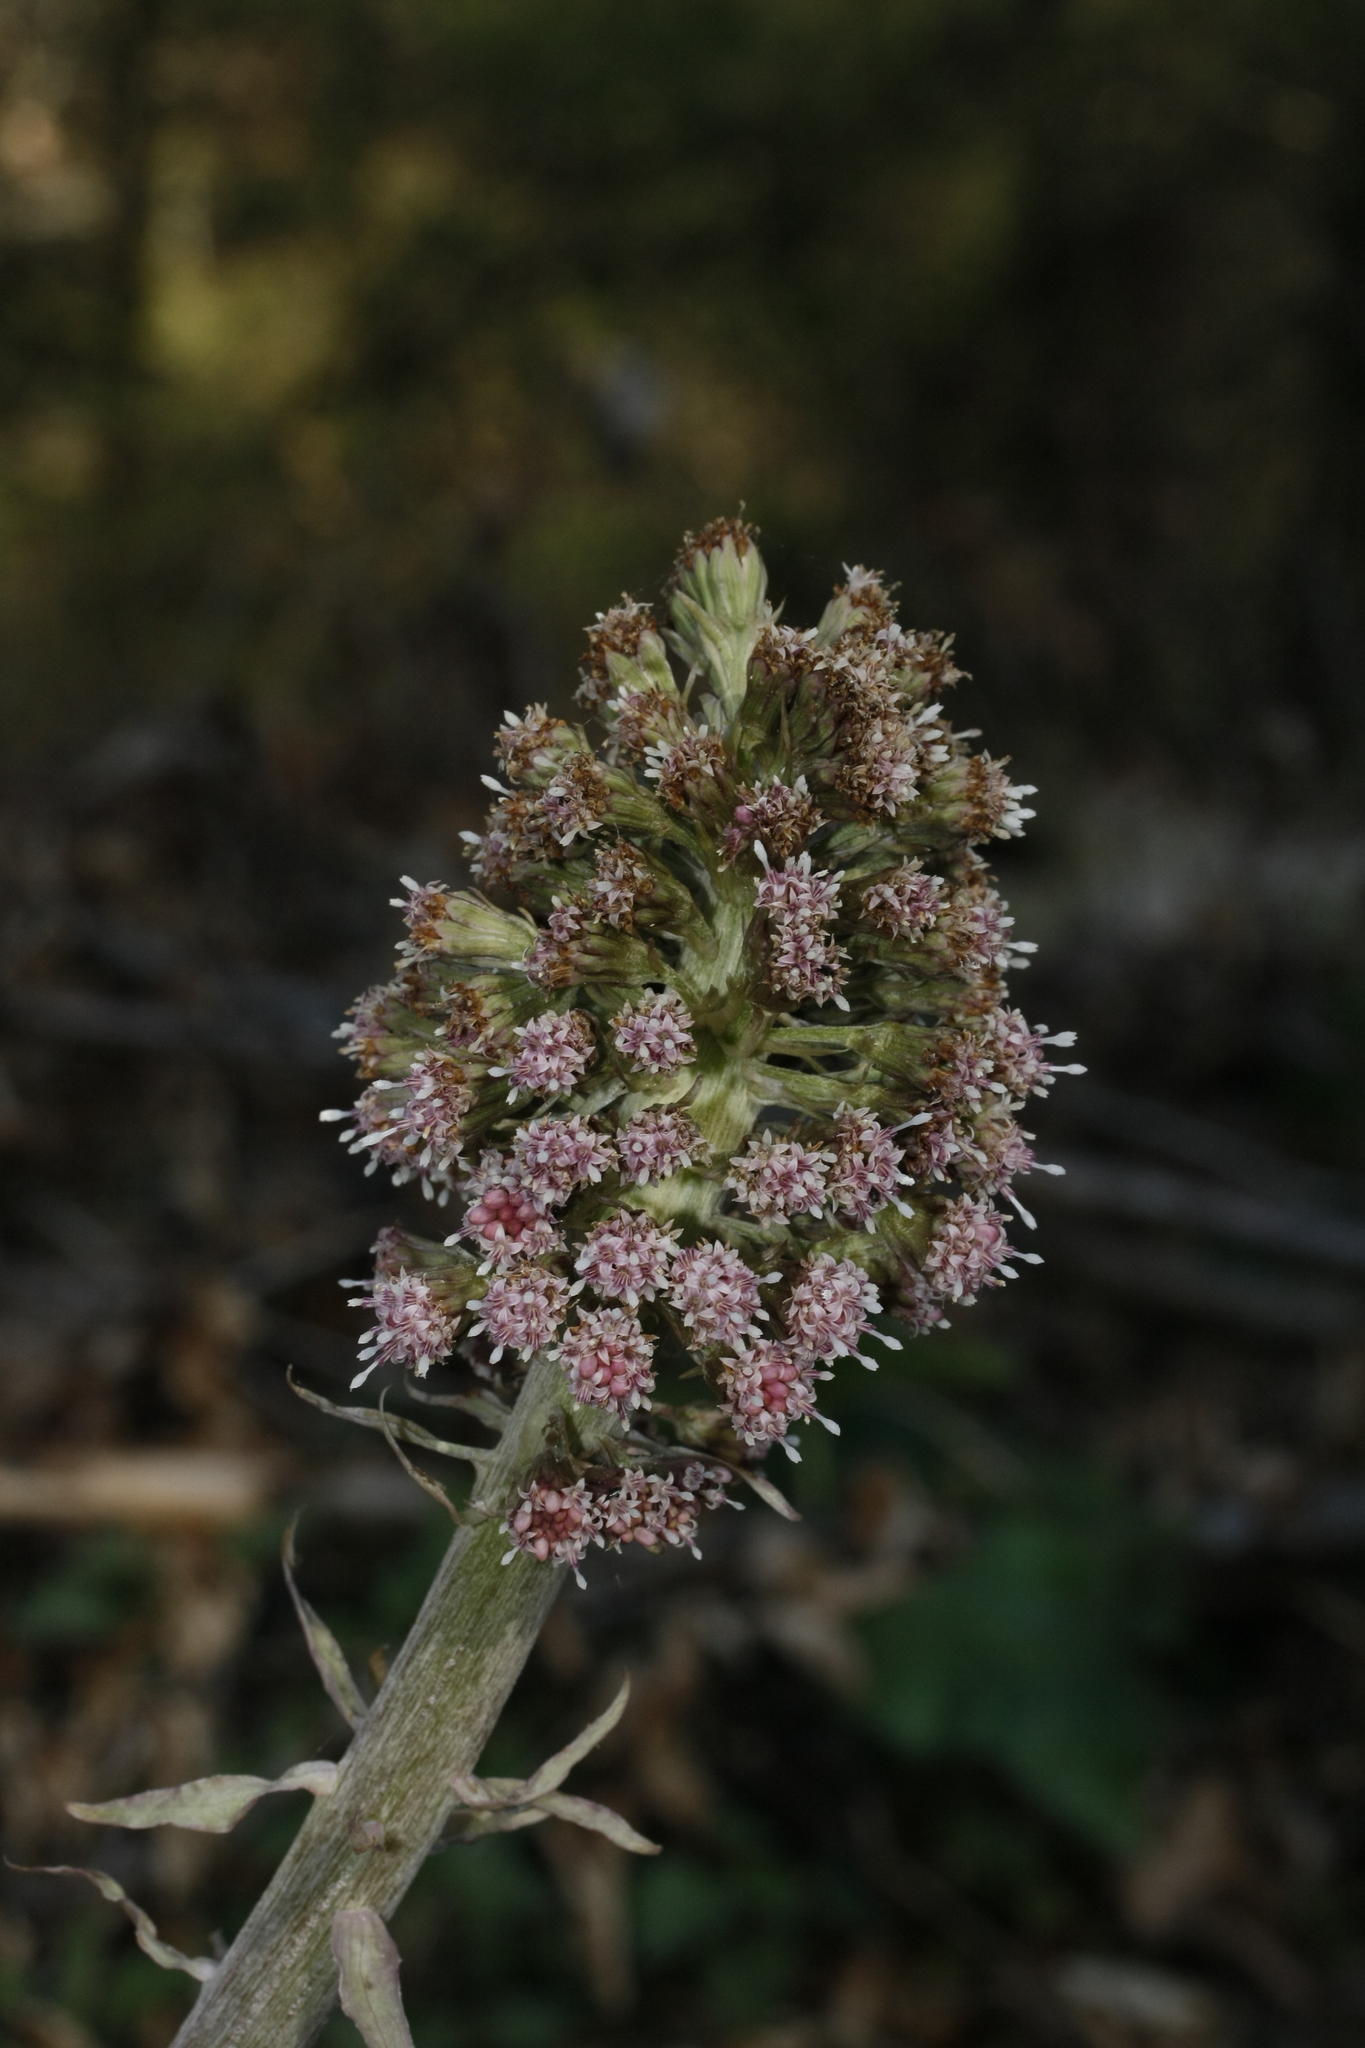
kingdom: Plantae
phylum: Tracheophyta
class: Magnoliopsida
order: Asterales
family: Asteraceae
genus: Petasites
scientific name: Petasites hybridus
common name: Butterbur
